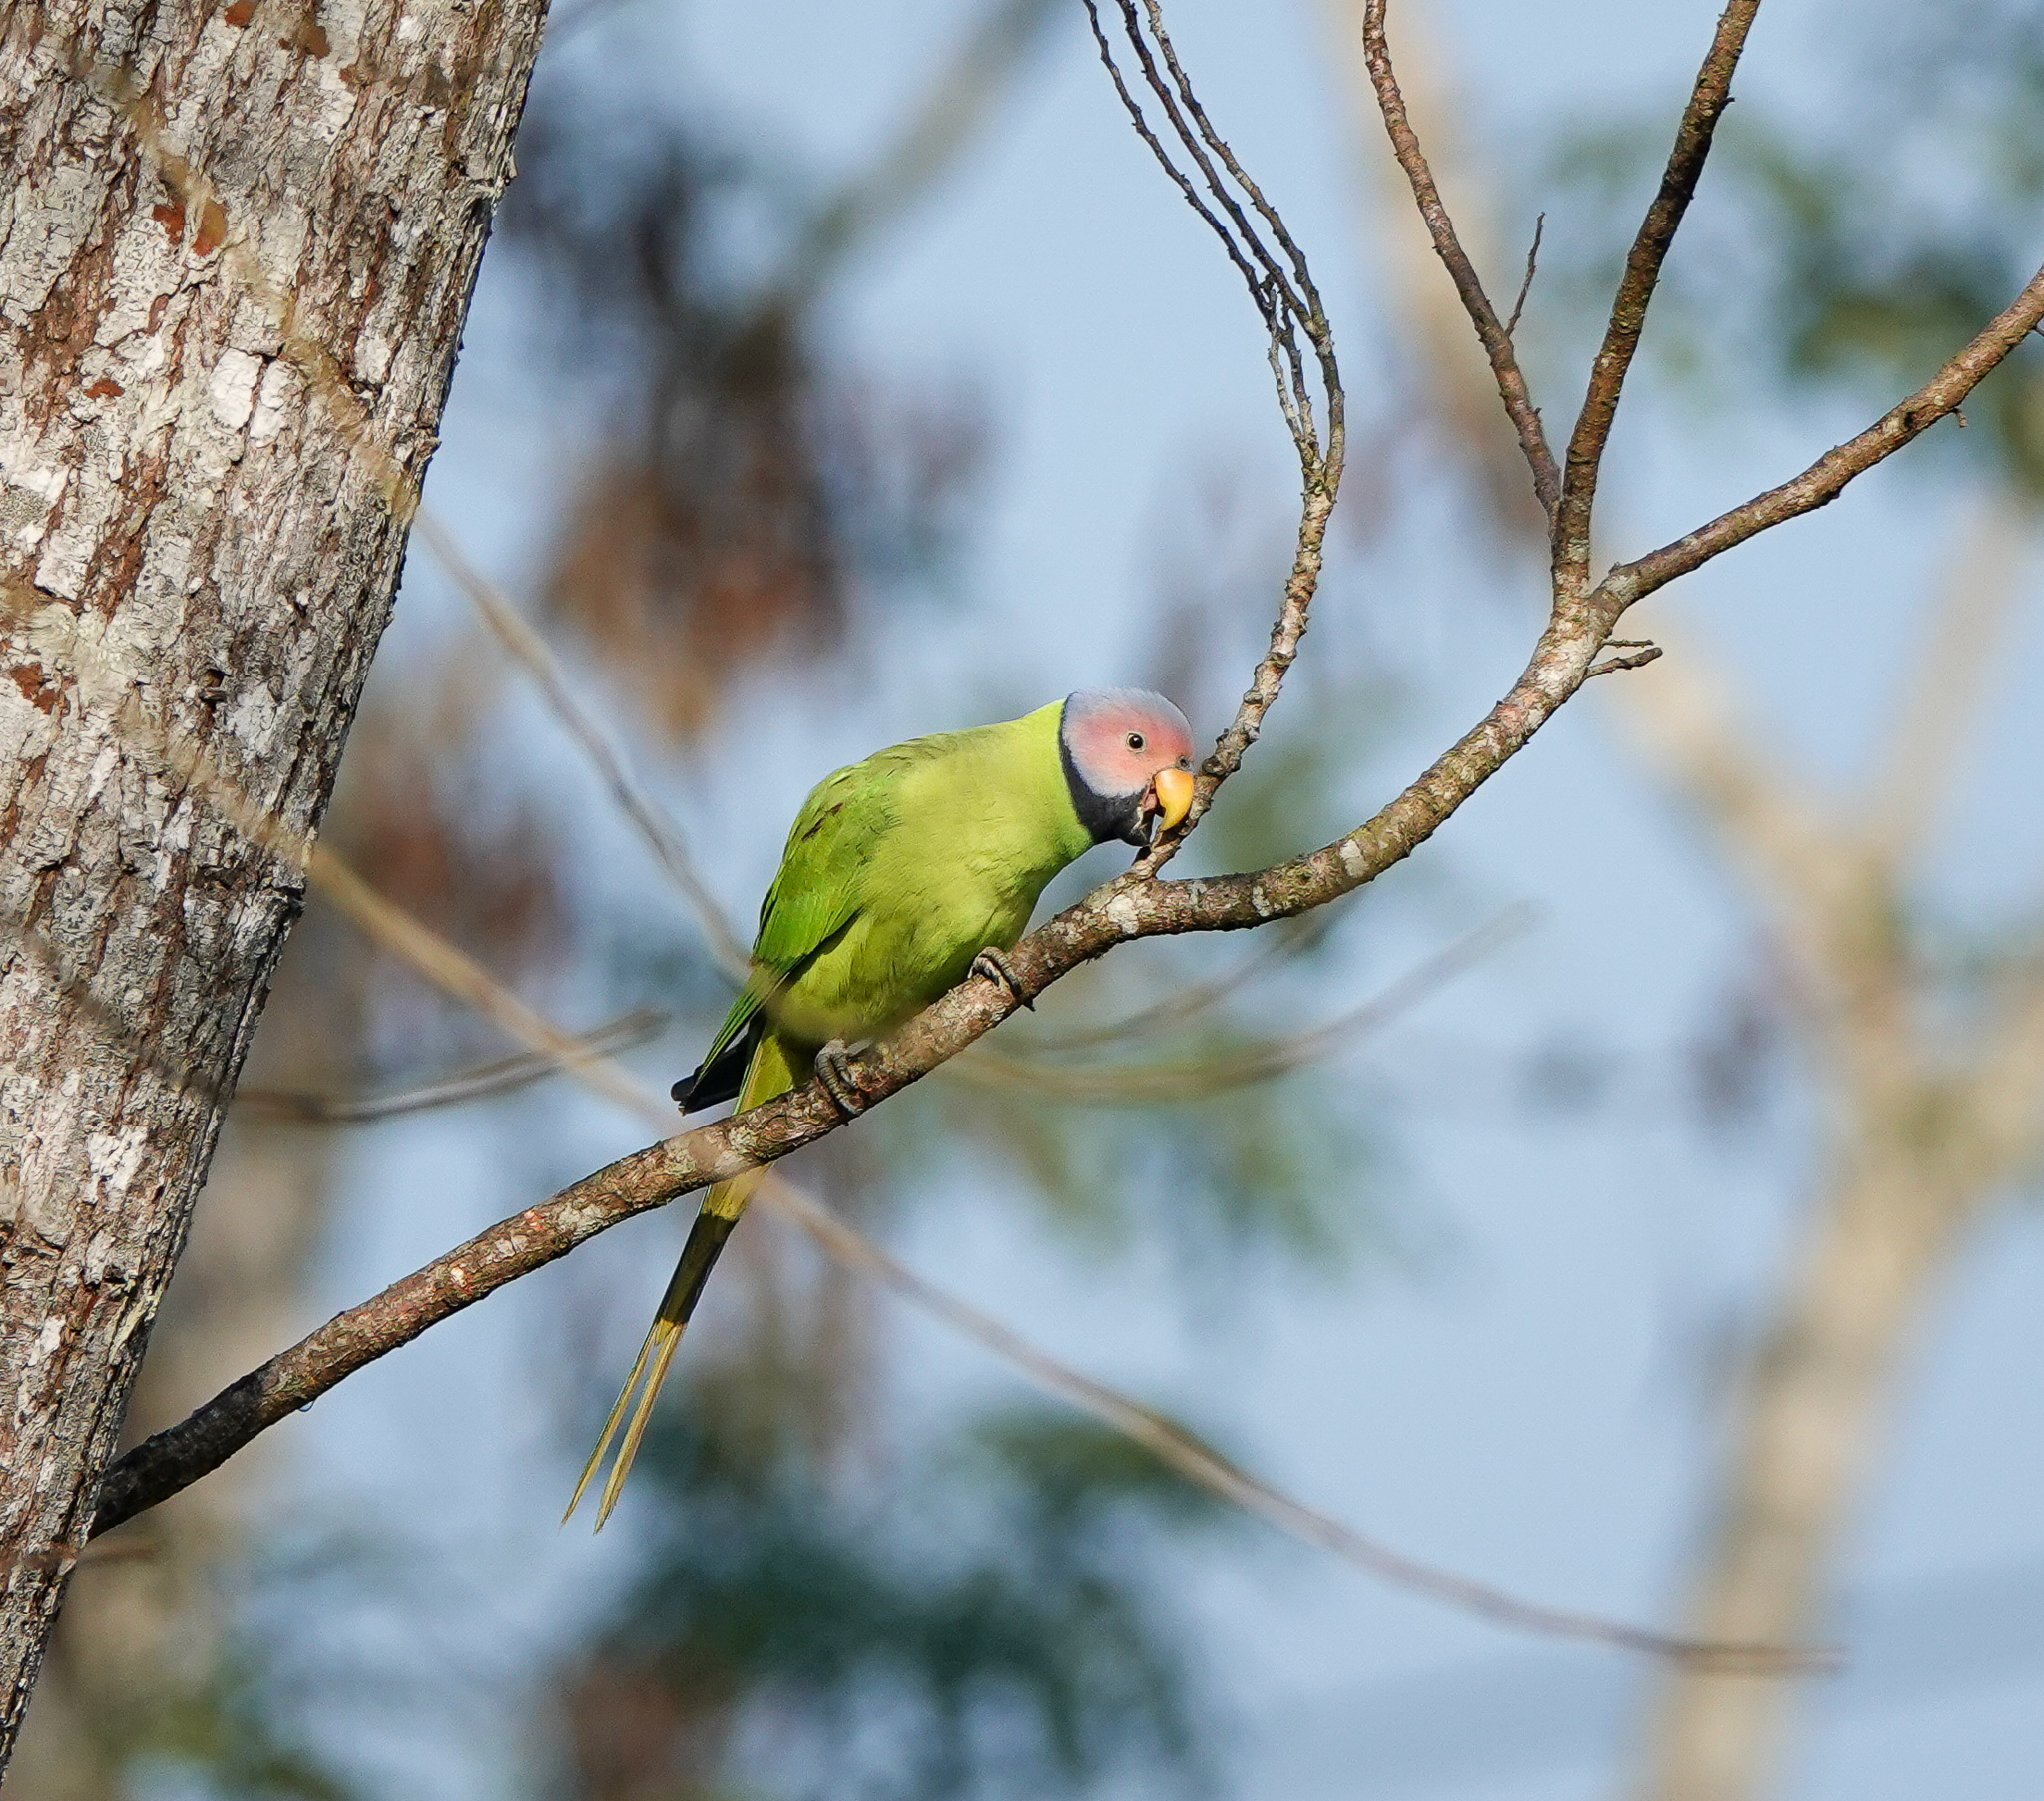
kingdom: Animalia
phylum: Chordata
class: Aves
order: Psittaciformes
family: Psittacidae
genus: Psittacula
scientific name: Psittacula roseata
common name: Blossom-headed parakeet
